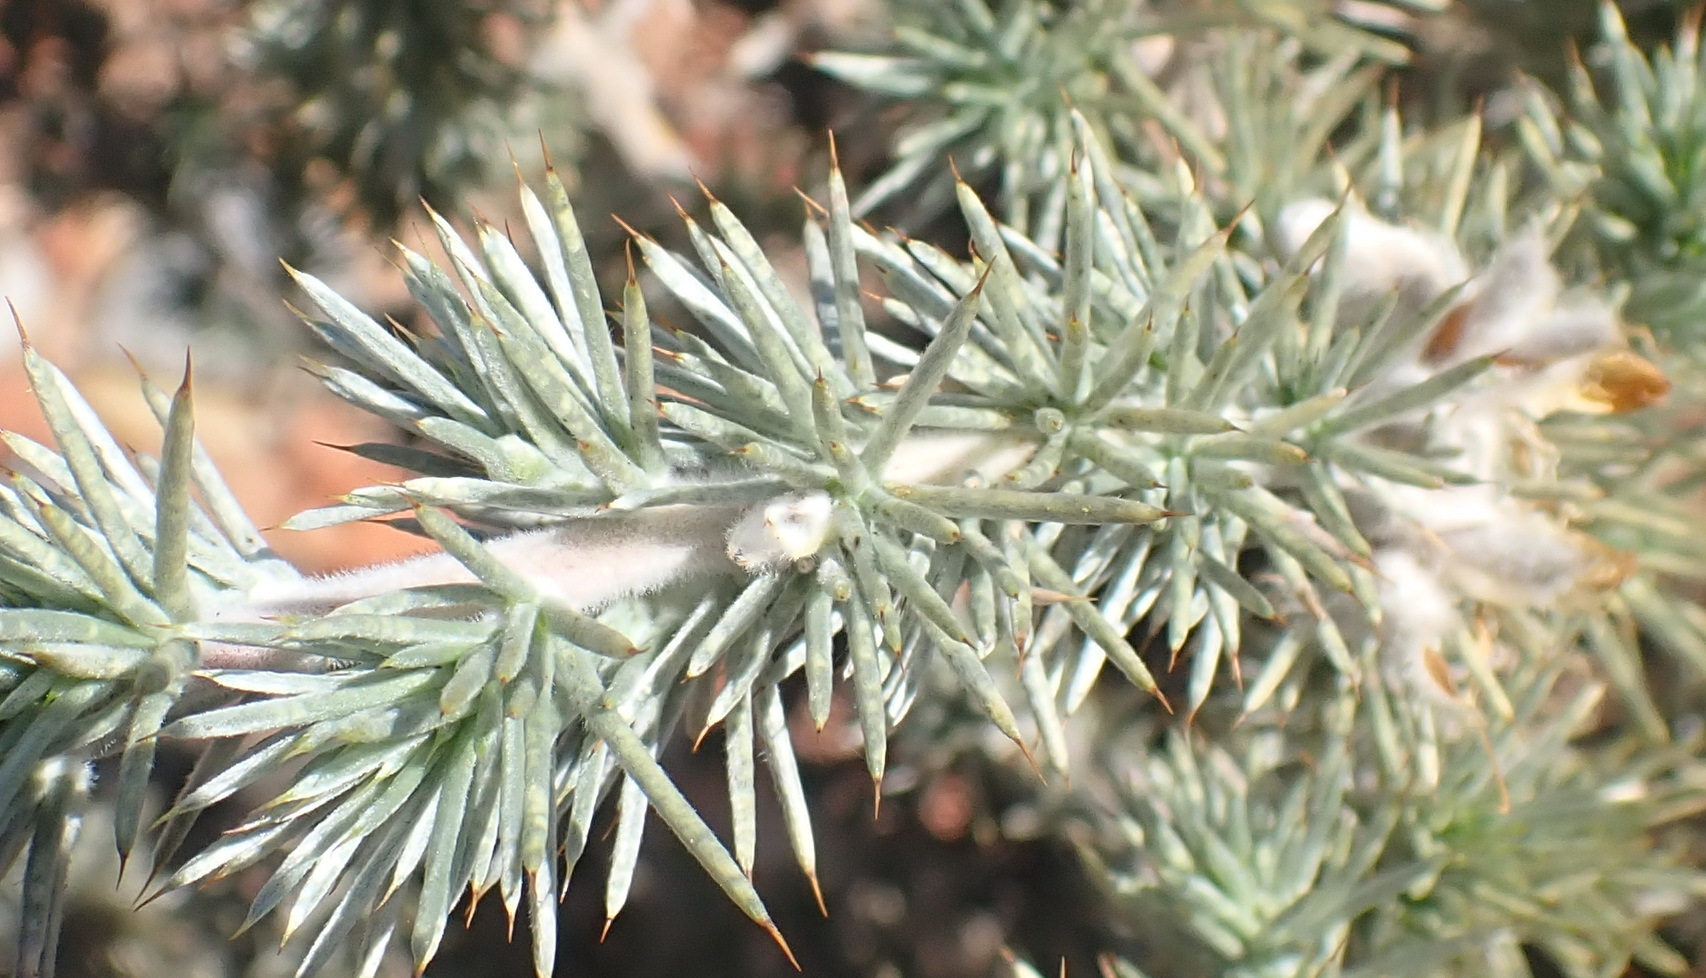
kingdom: Plantae
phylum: Tracheophyta
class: Magnoliopsida
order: Fabales
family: Fabaceae
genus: Aspalathus
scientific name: Aspalathus hystrix
